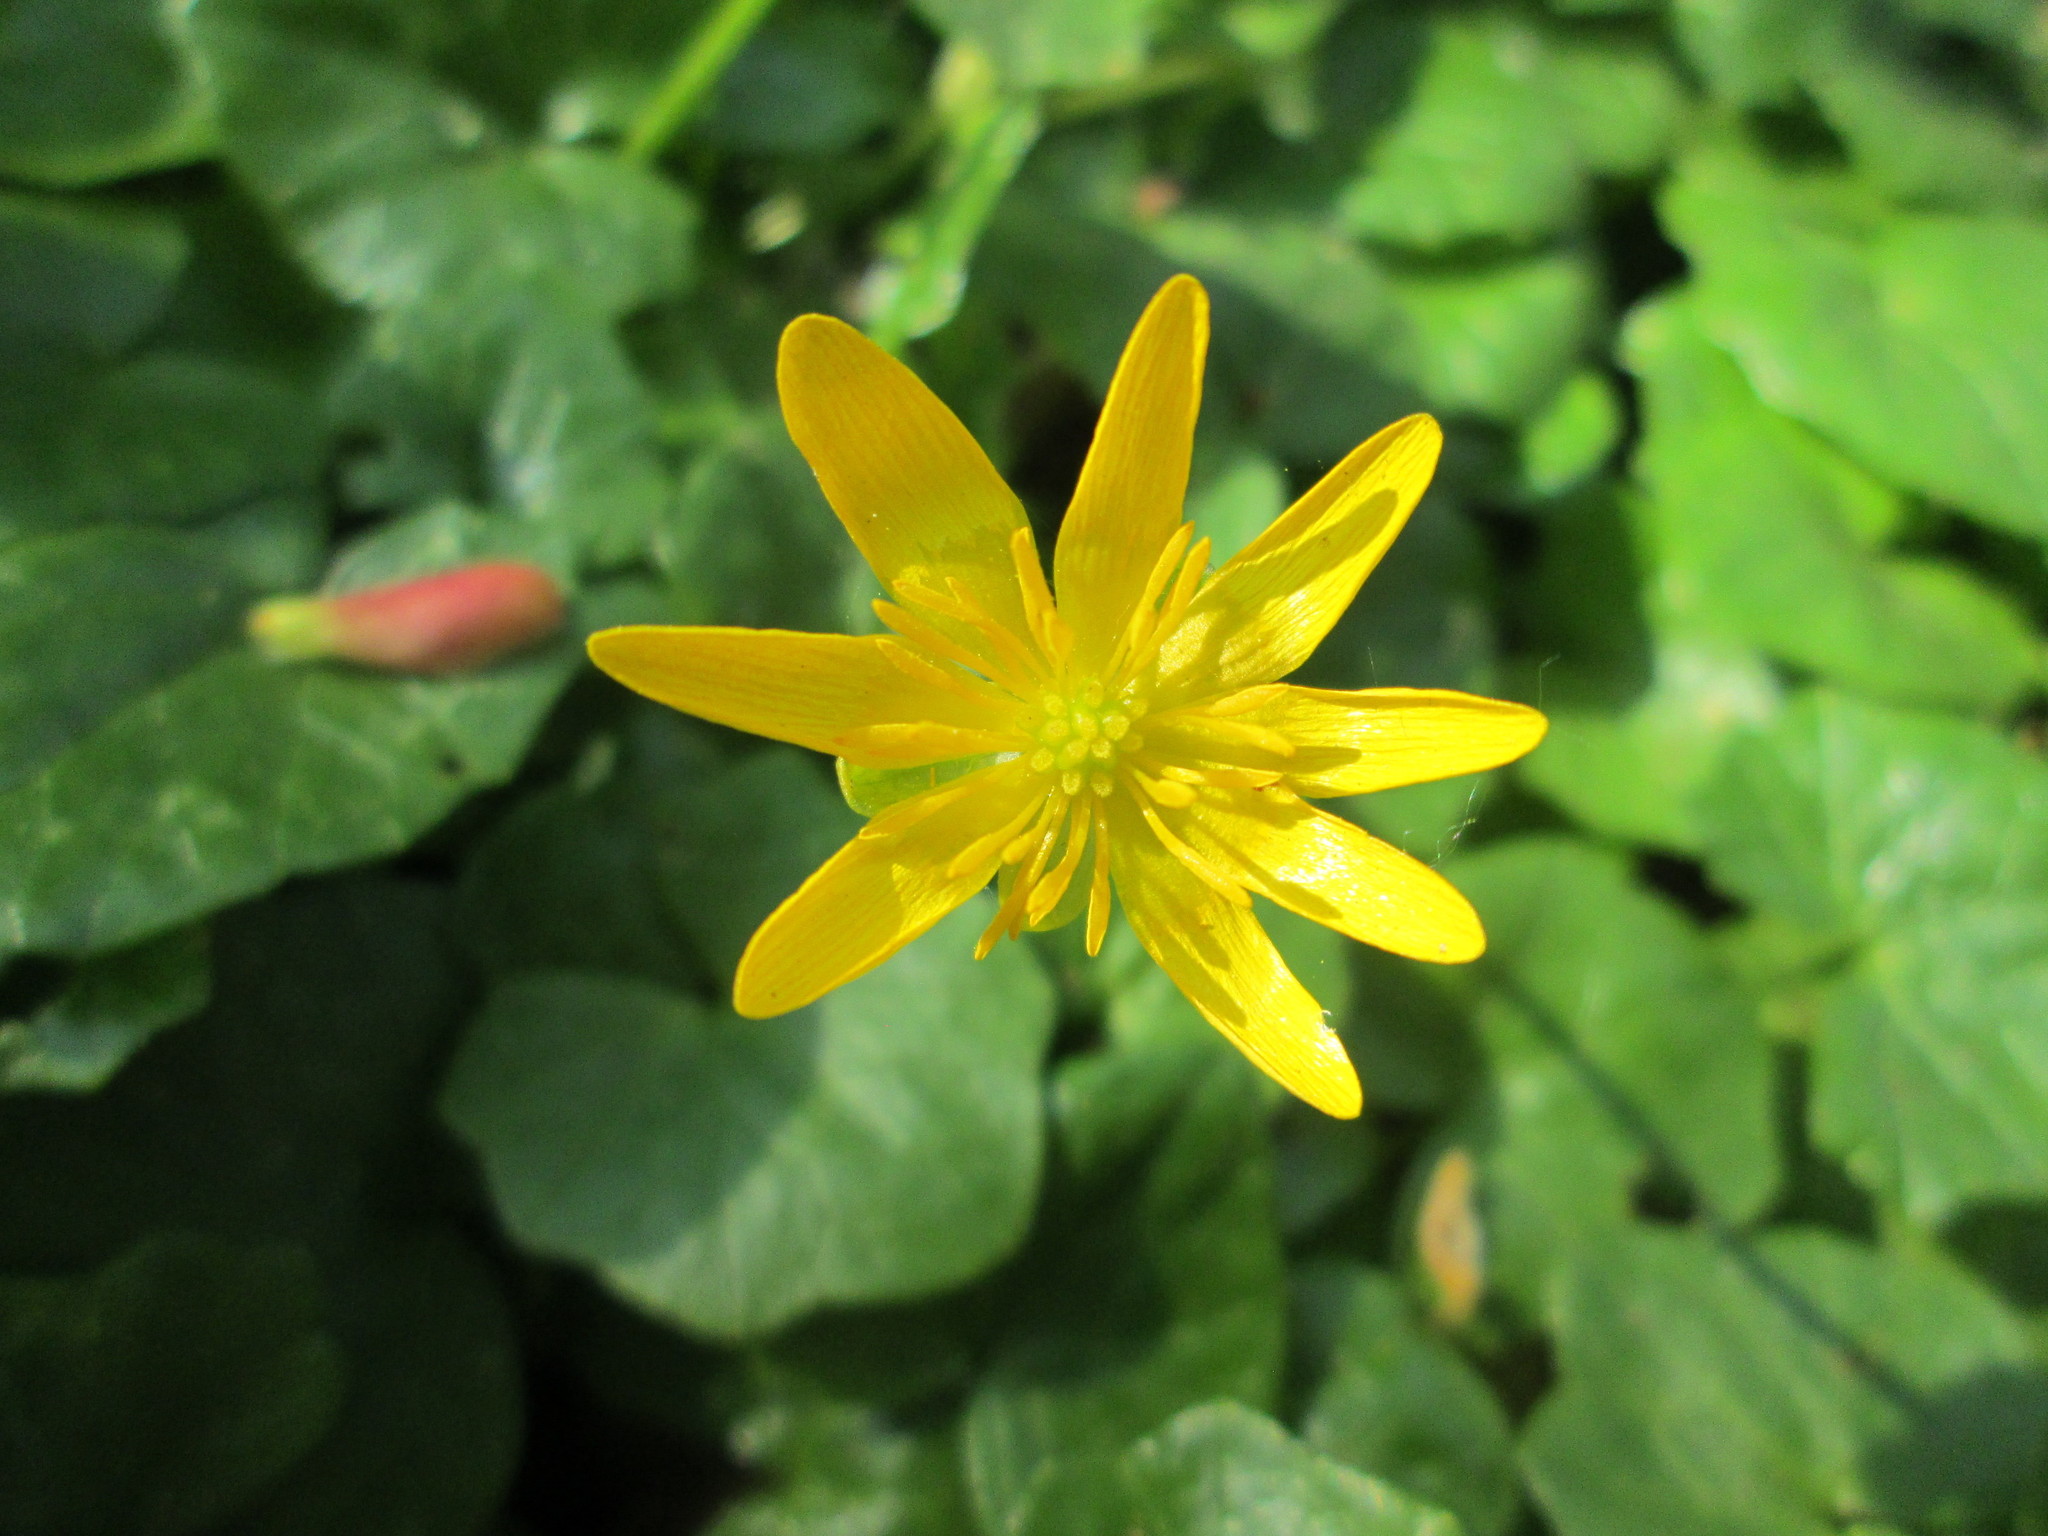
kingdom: Plantae
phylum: Tracheophyta
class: Magnoliopsida
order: Ranunculales
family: Ranunculaceae
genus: Ficaria
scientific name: Ficaria verna
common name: Lesser celandine
